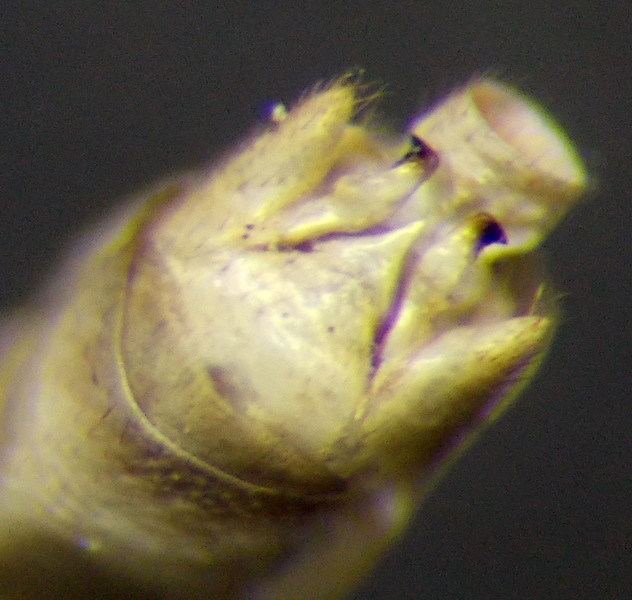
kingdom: Animalia
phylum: Arthropoda
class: Insecta
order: Hemiptera
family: Rhopalidae
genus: Chorosoma
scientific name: Chorosoma schillingii
